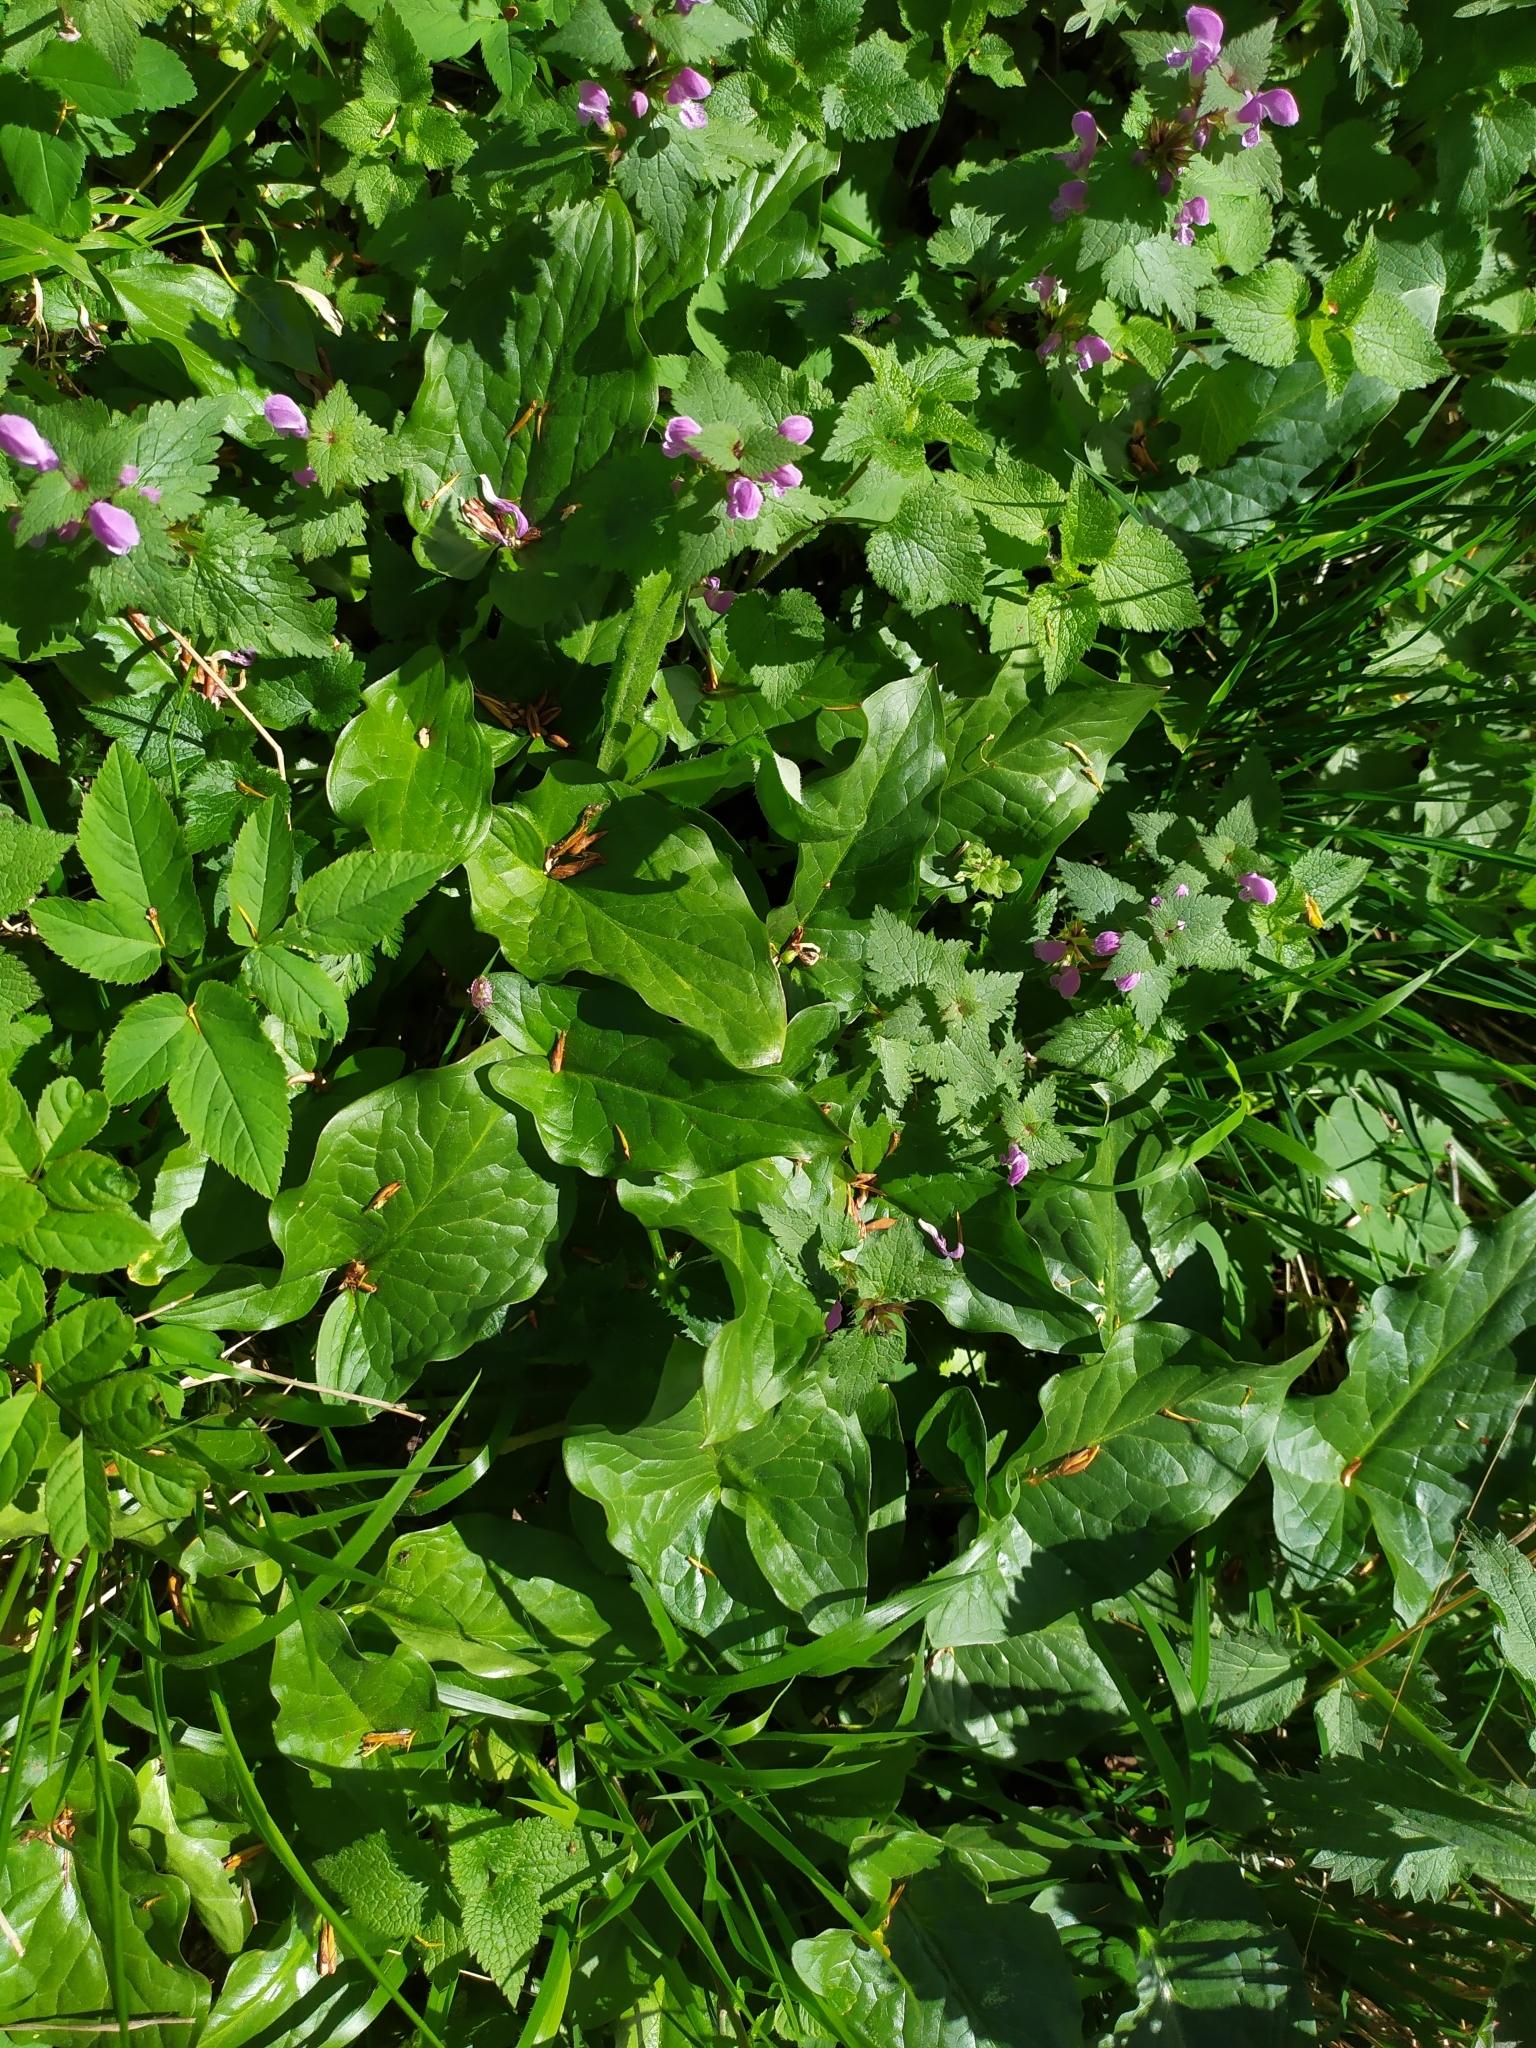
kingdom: Plantae
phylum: Tracheophyta
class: Liliopsida
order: Alismatales
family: Araceae
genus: Arum
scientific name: Arum cylindraceum
